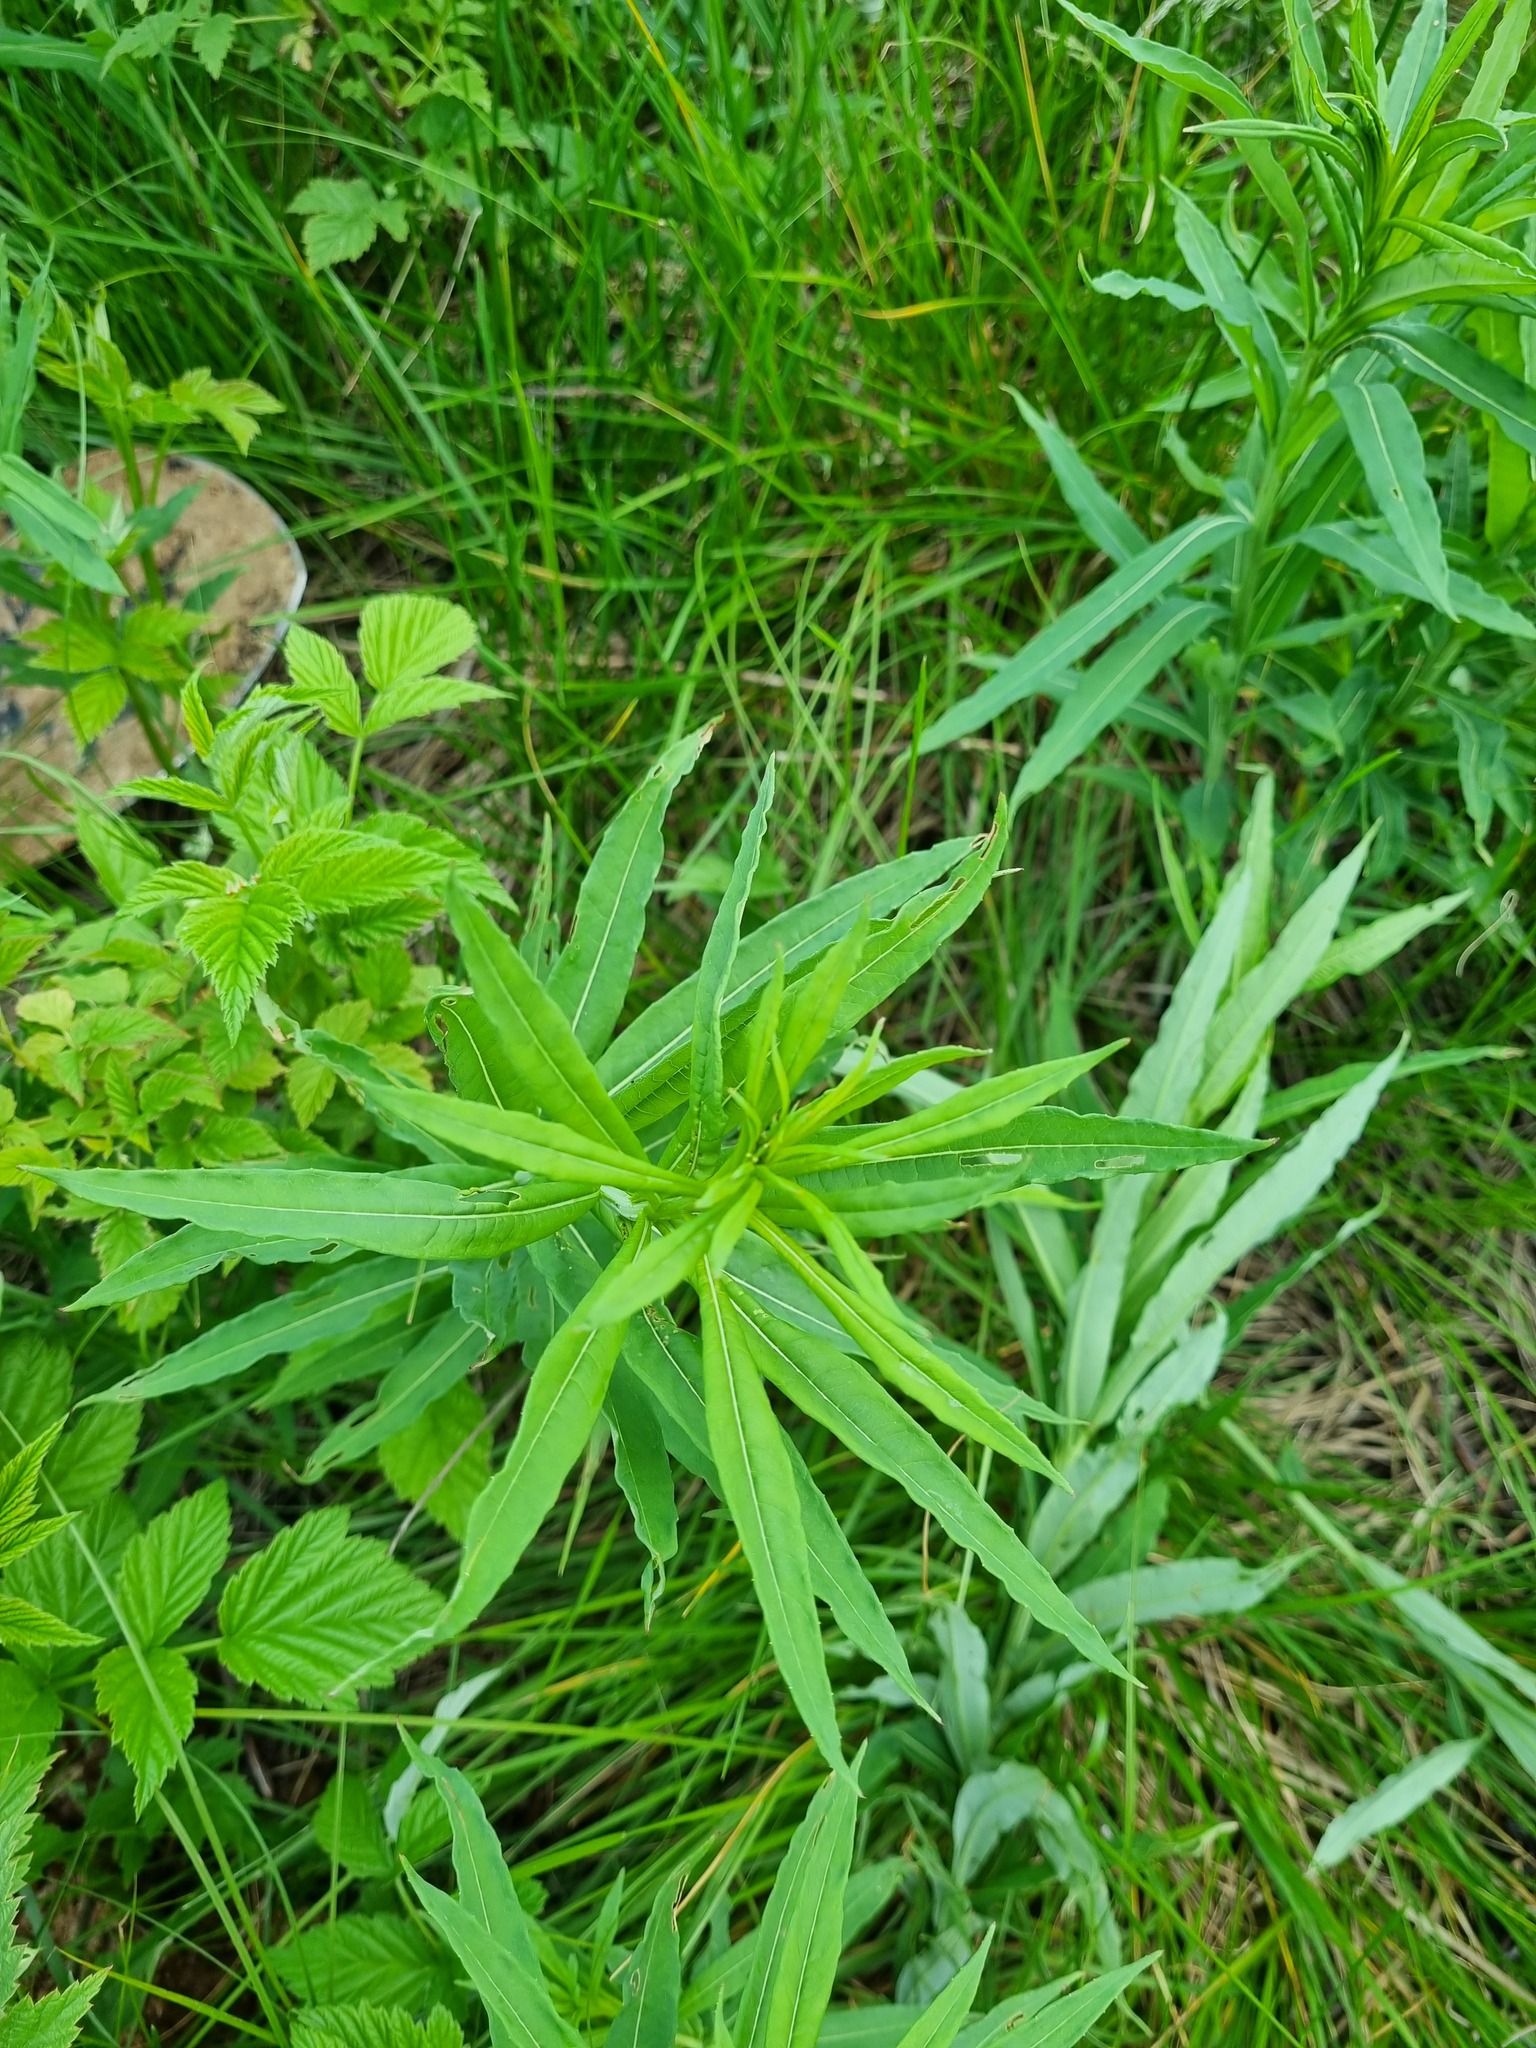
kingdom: Plantae
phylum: Tracheophyta
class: Magnoliopsida
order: Myrtales
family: Onagraceae
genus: Chamaenerion
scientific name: Chamaenerion angustifolium
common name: Fireweed
